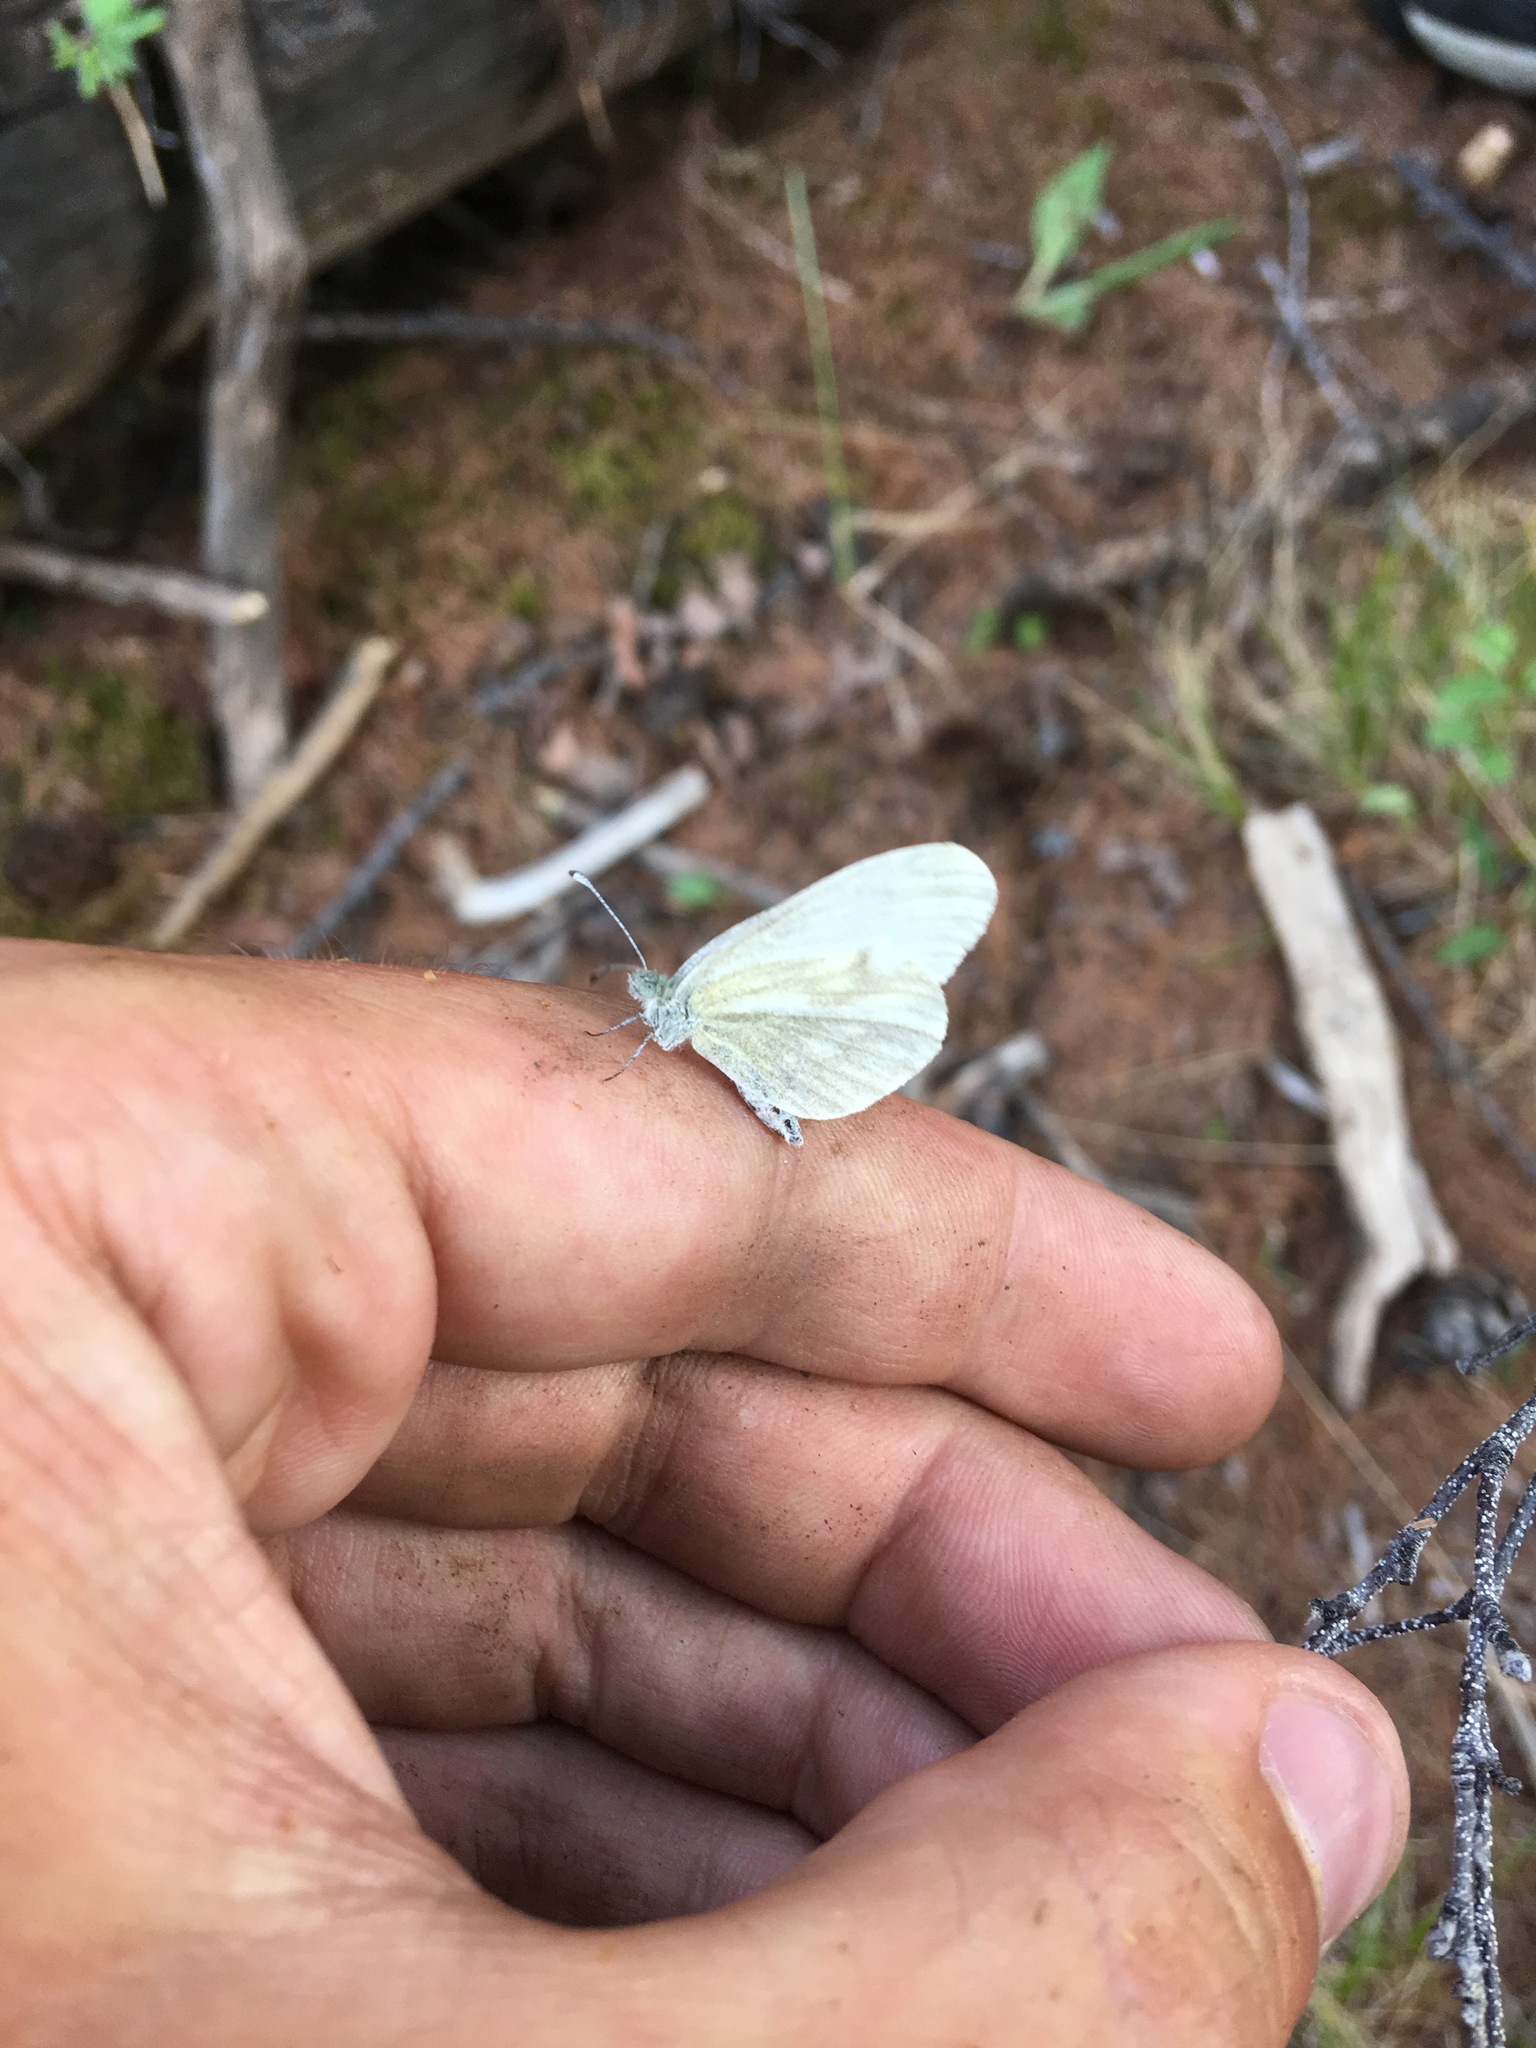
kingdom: Animalia
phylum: Arthropoda
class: Insecta
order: Lepidoptera
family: Pieridae
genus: Leptidea
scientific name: Leptidea morsei
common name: Fenton's wood white
